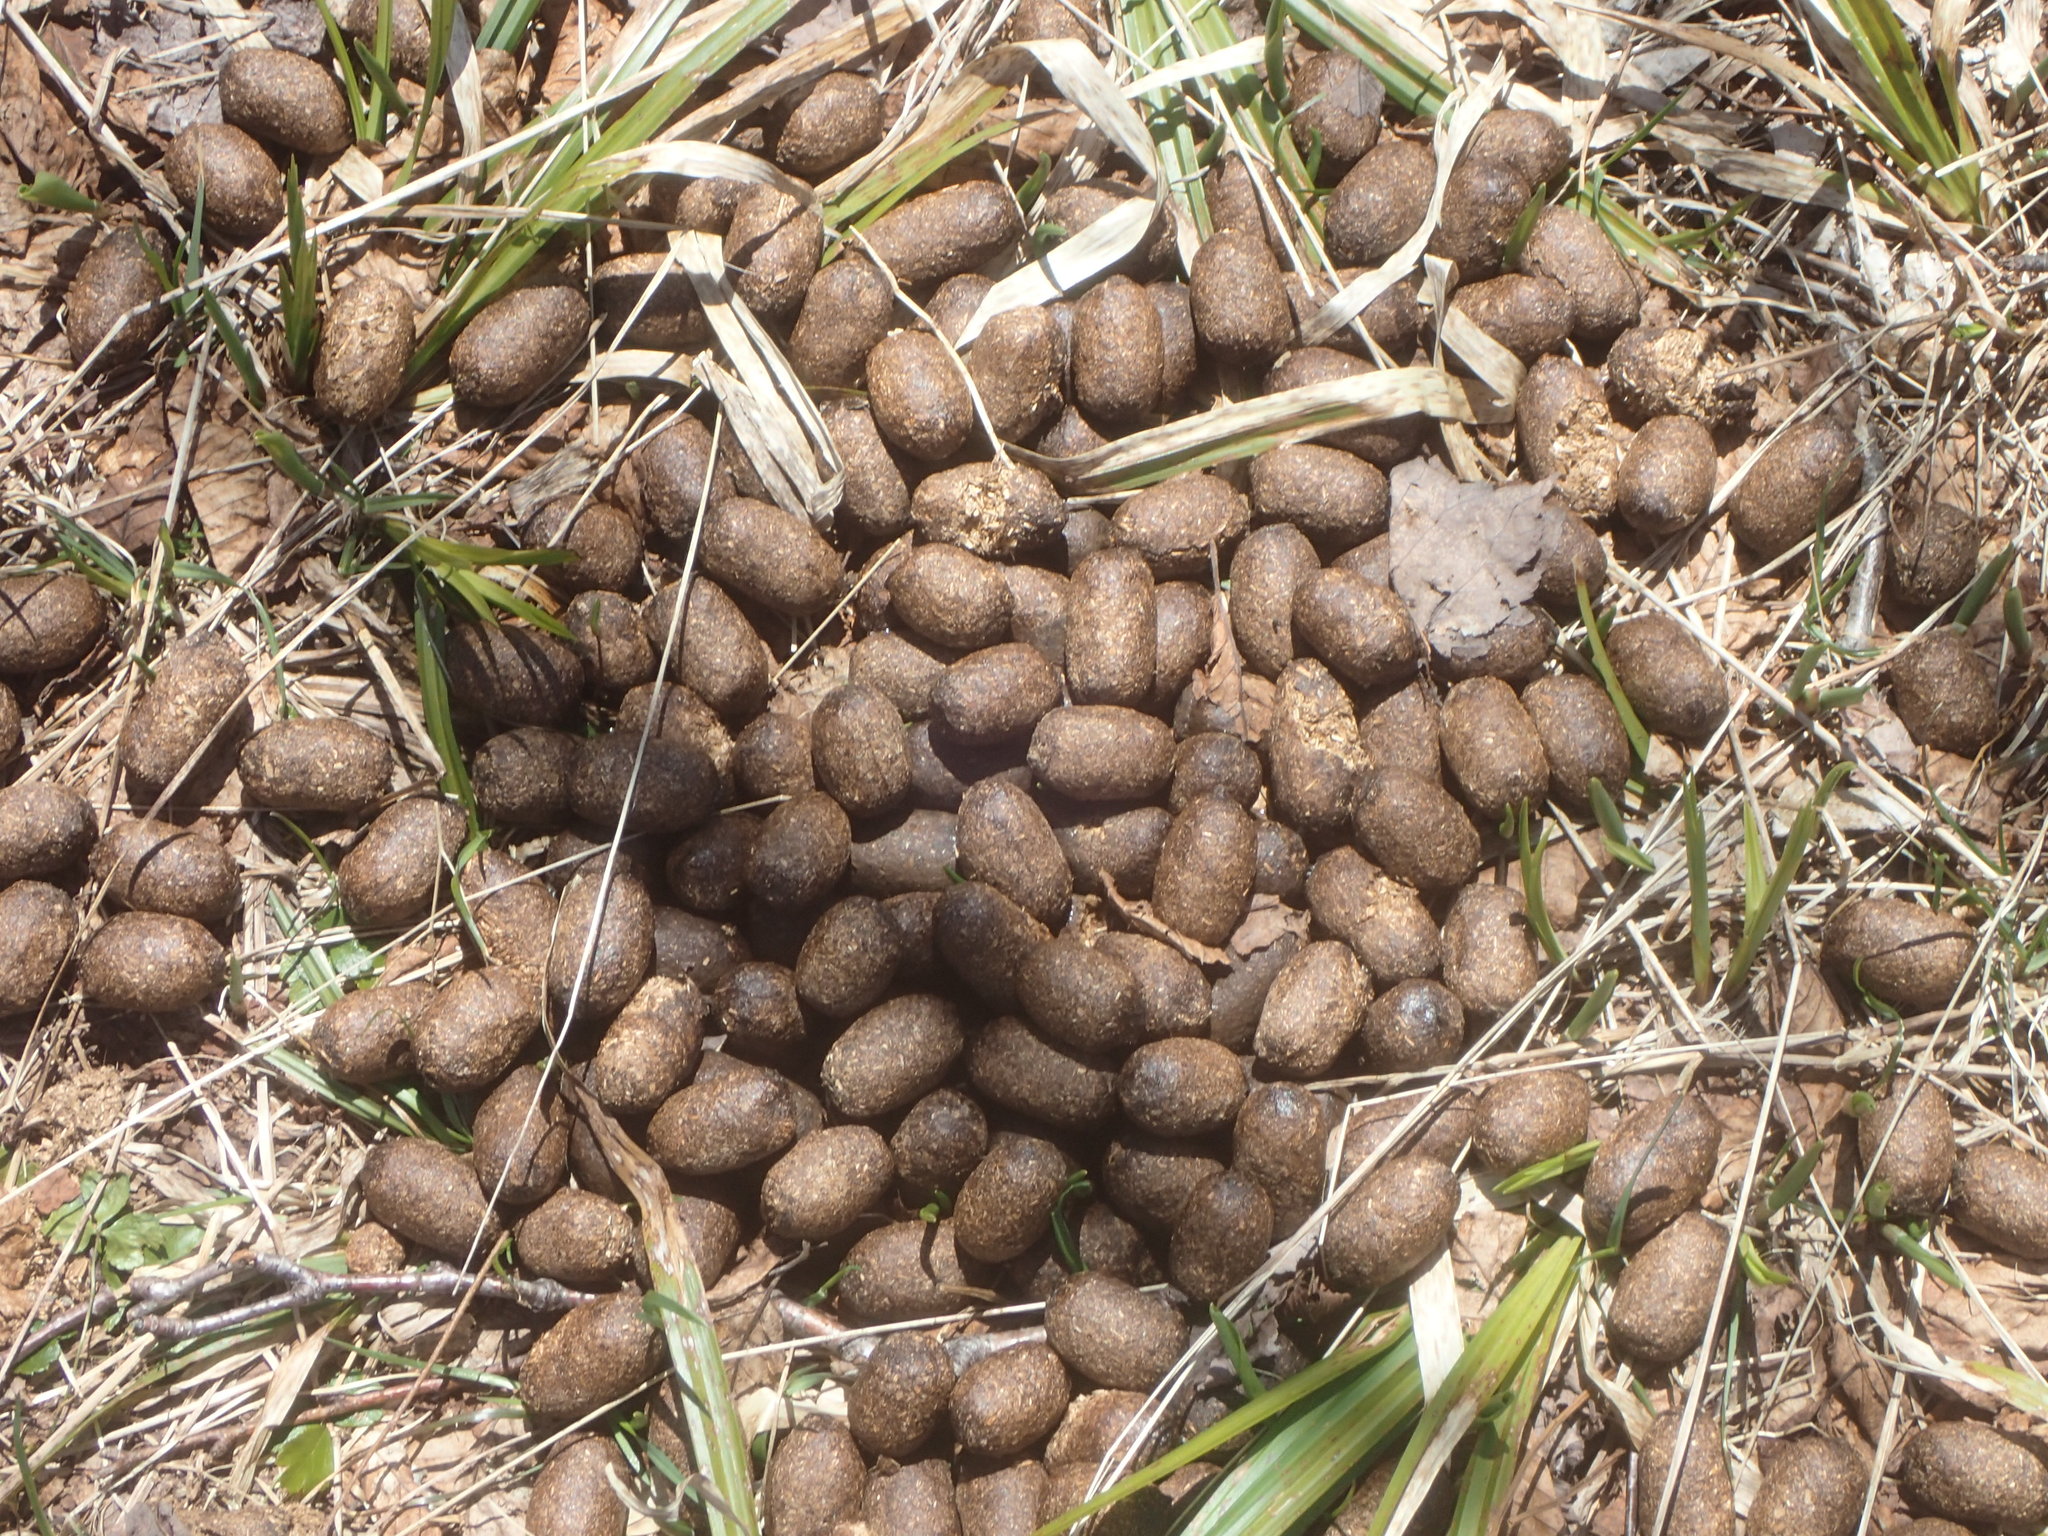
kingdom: Animalia
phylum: Chordata
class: Mammalia
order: Artiodactyla
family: Cervidae
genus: Alces
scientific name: Alces alces
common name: Moose
